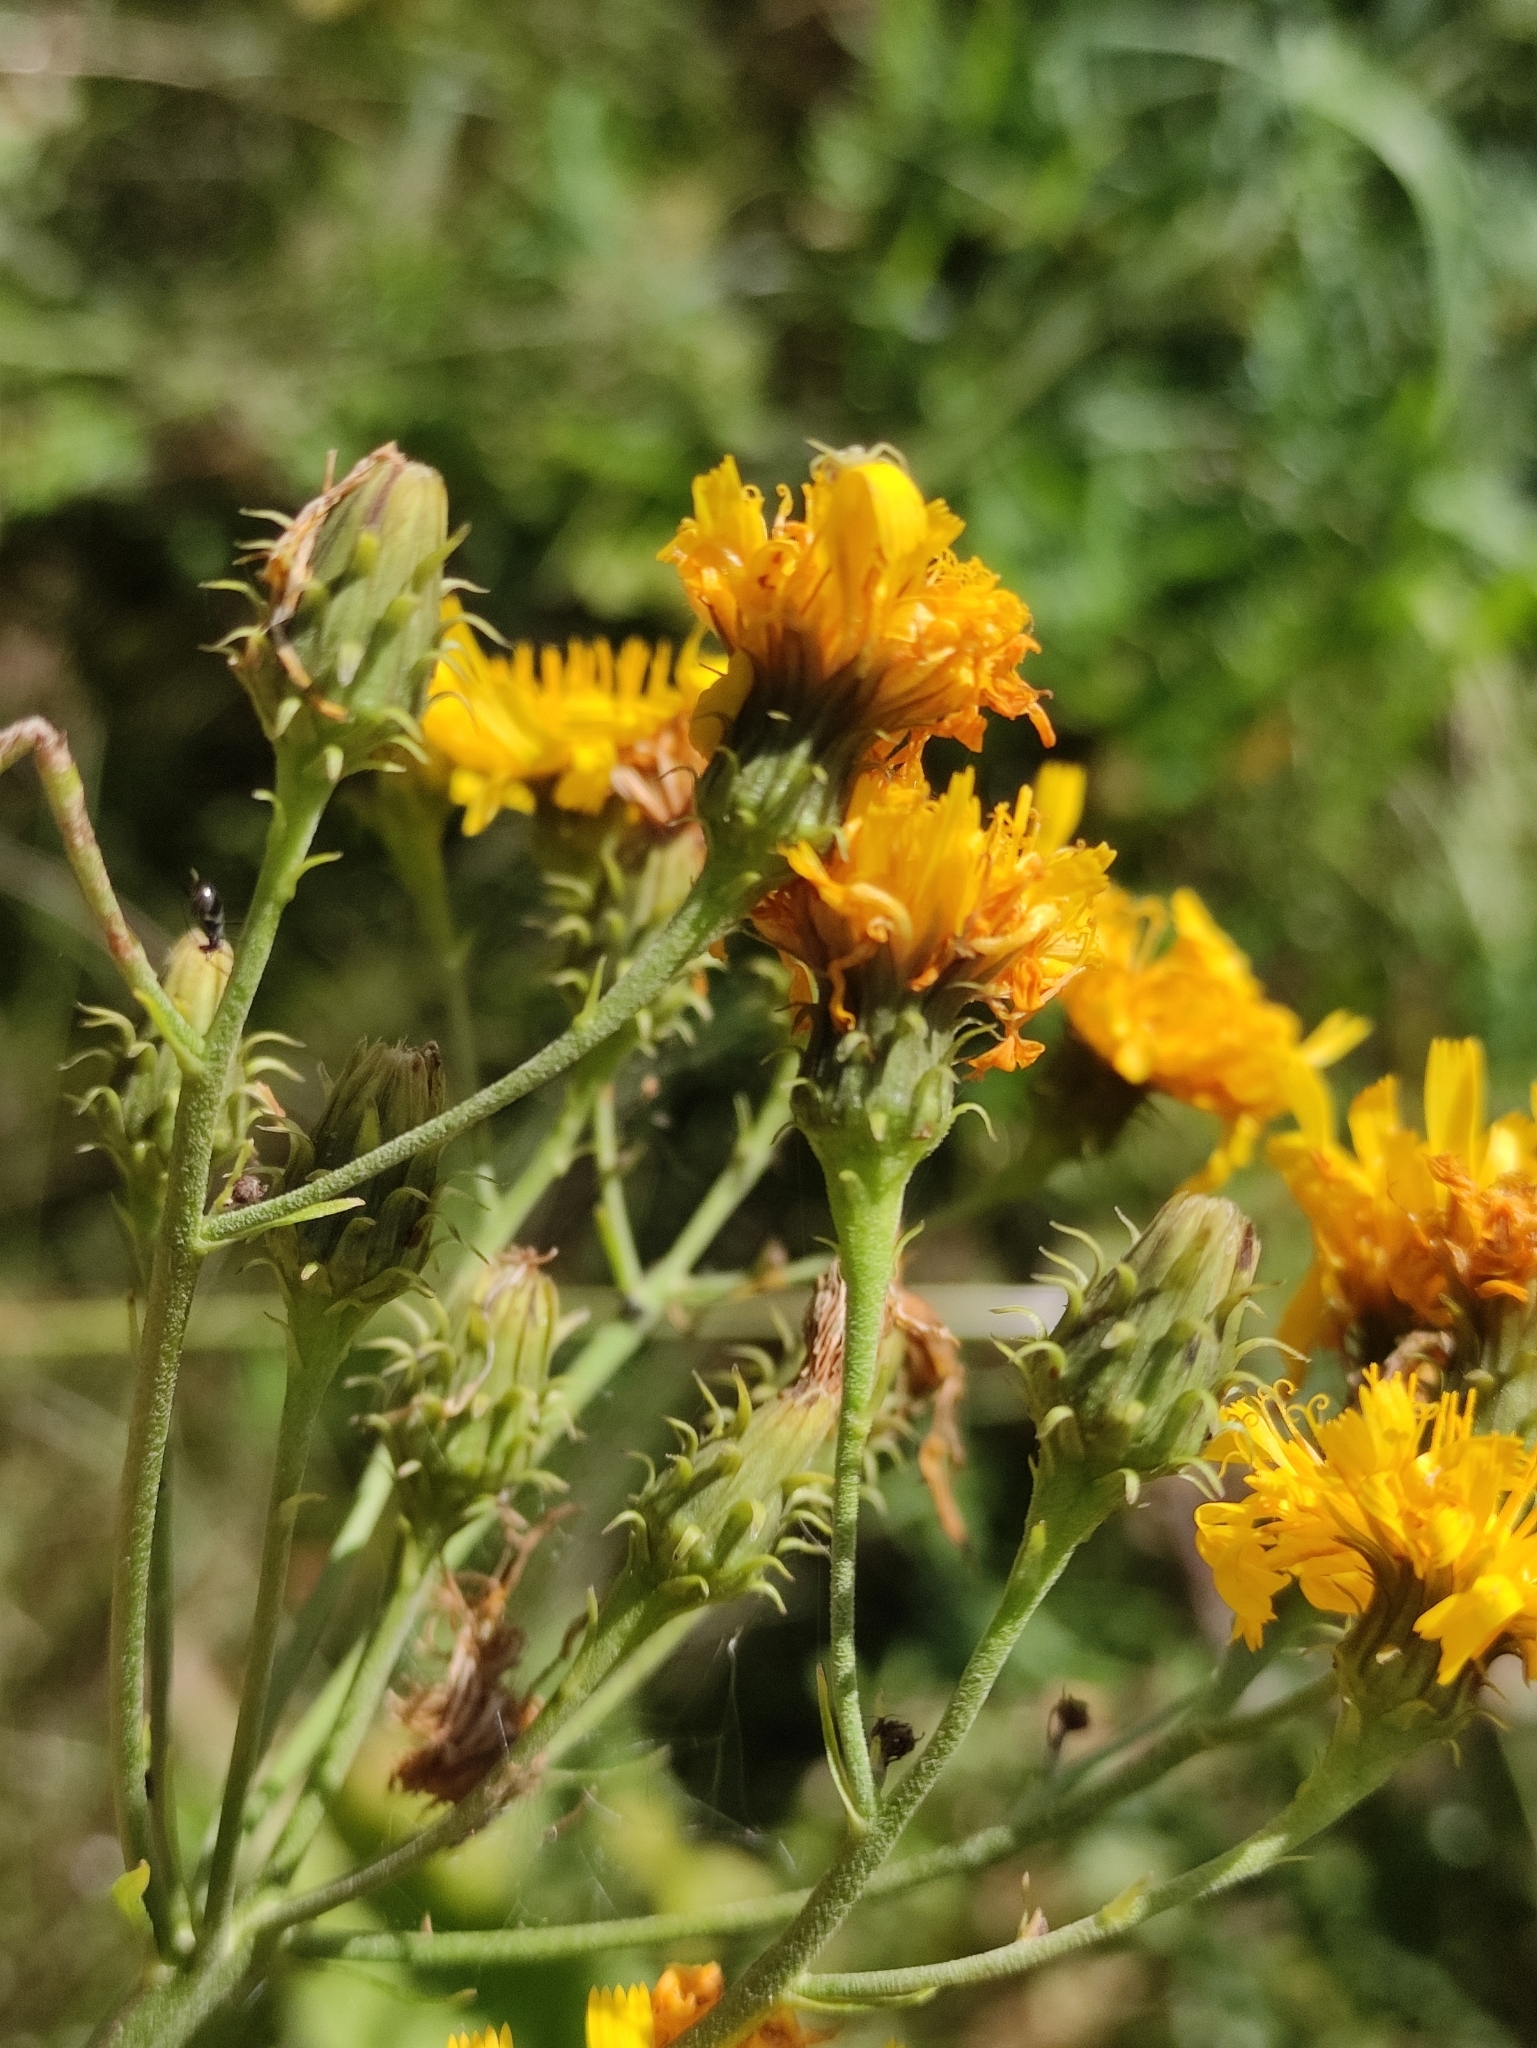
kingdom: Plantae
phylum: Tracheophyta
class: Magnoliopsida
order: Asterales
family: Asteraceae
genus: Hieracium
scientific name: Hieracium umbellatum
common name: Northern hawkweed
